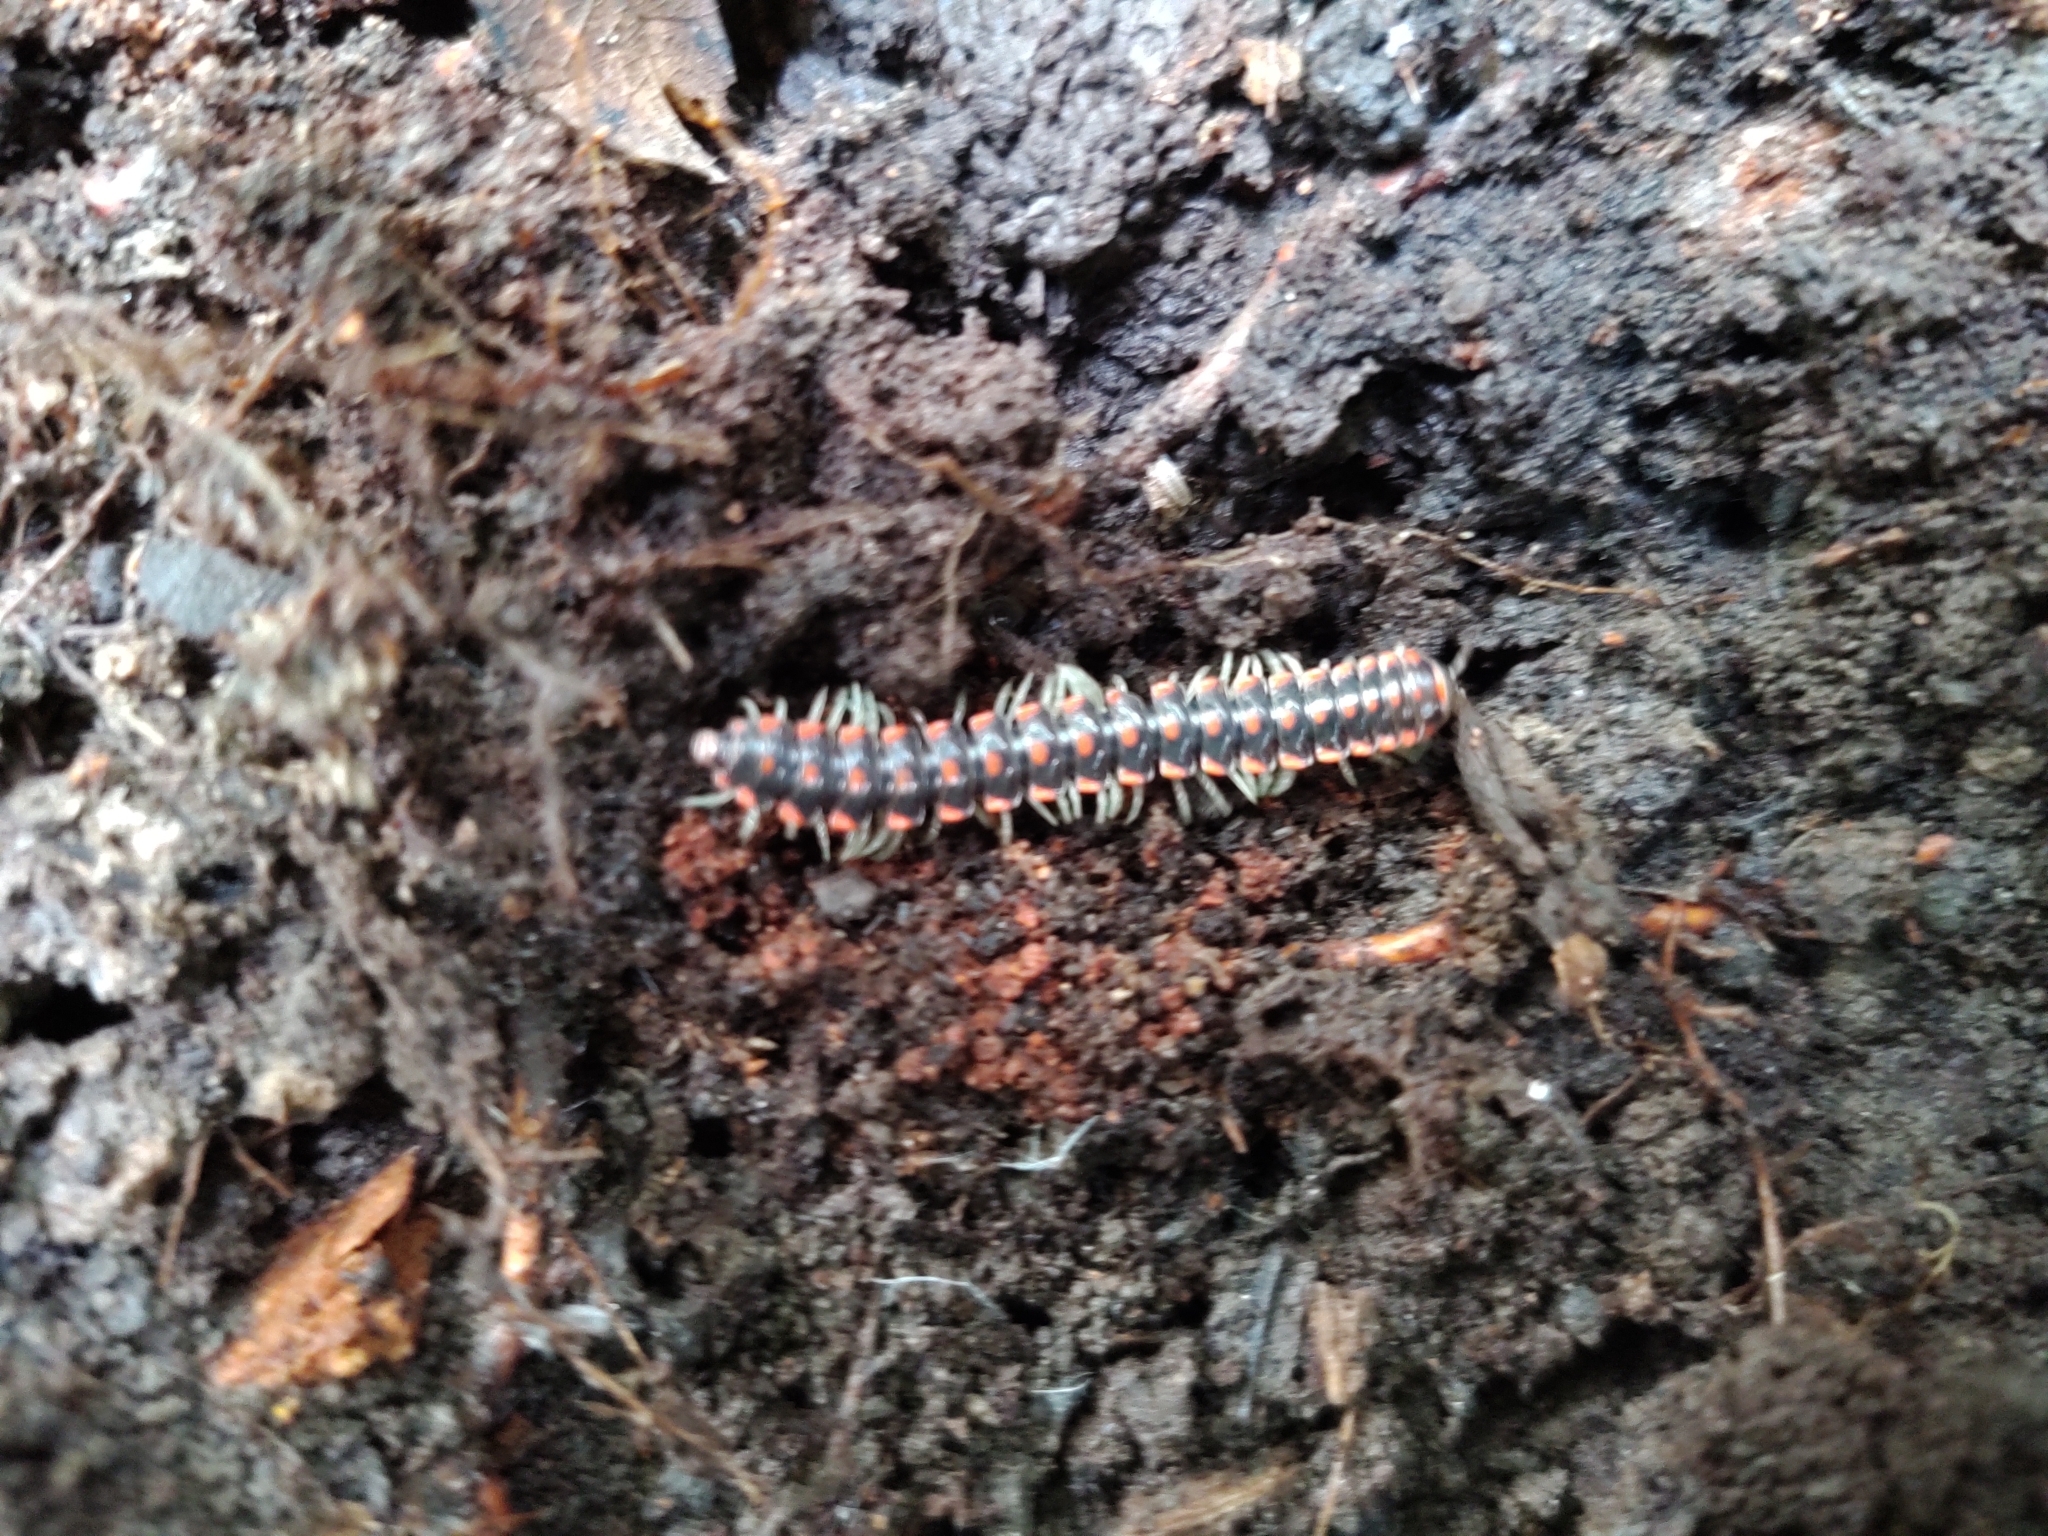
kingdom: Animalia
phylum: Arthropoda
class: Diplopoda
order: Polydesmida
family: Xystodesmidae
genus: Euryurus
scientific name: Euryurus evides
